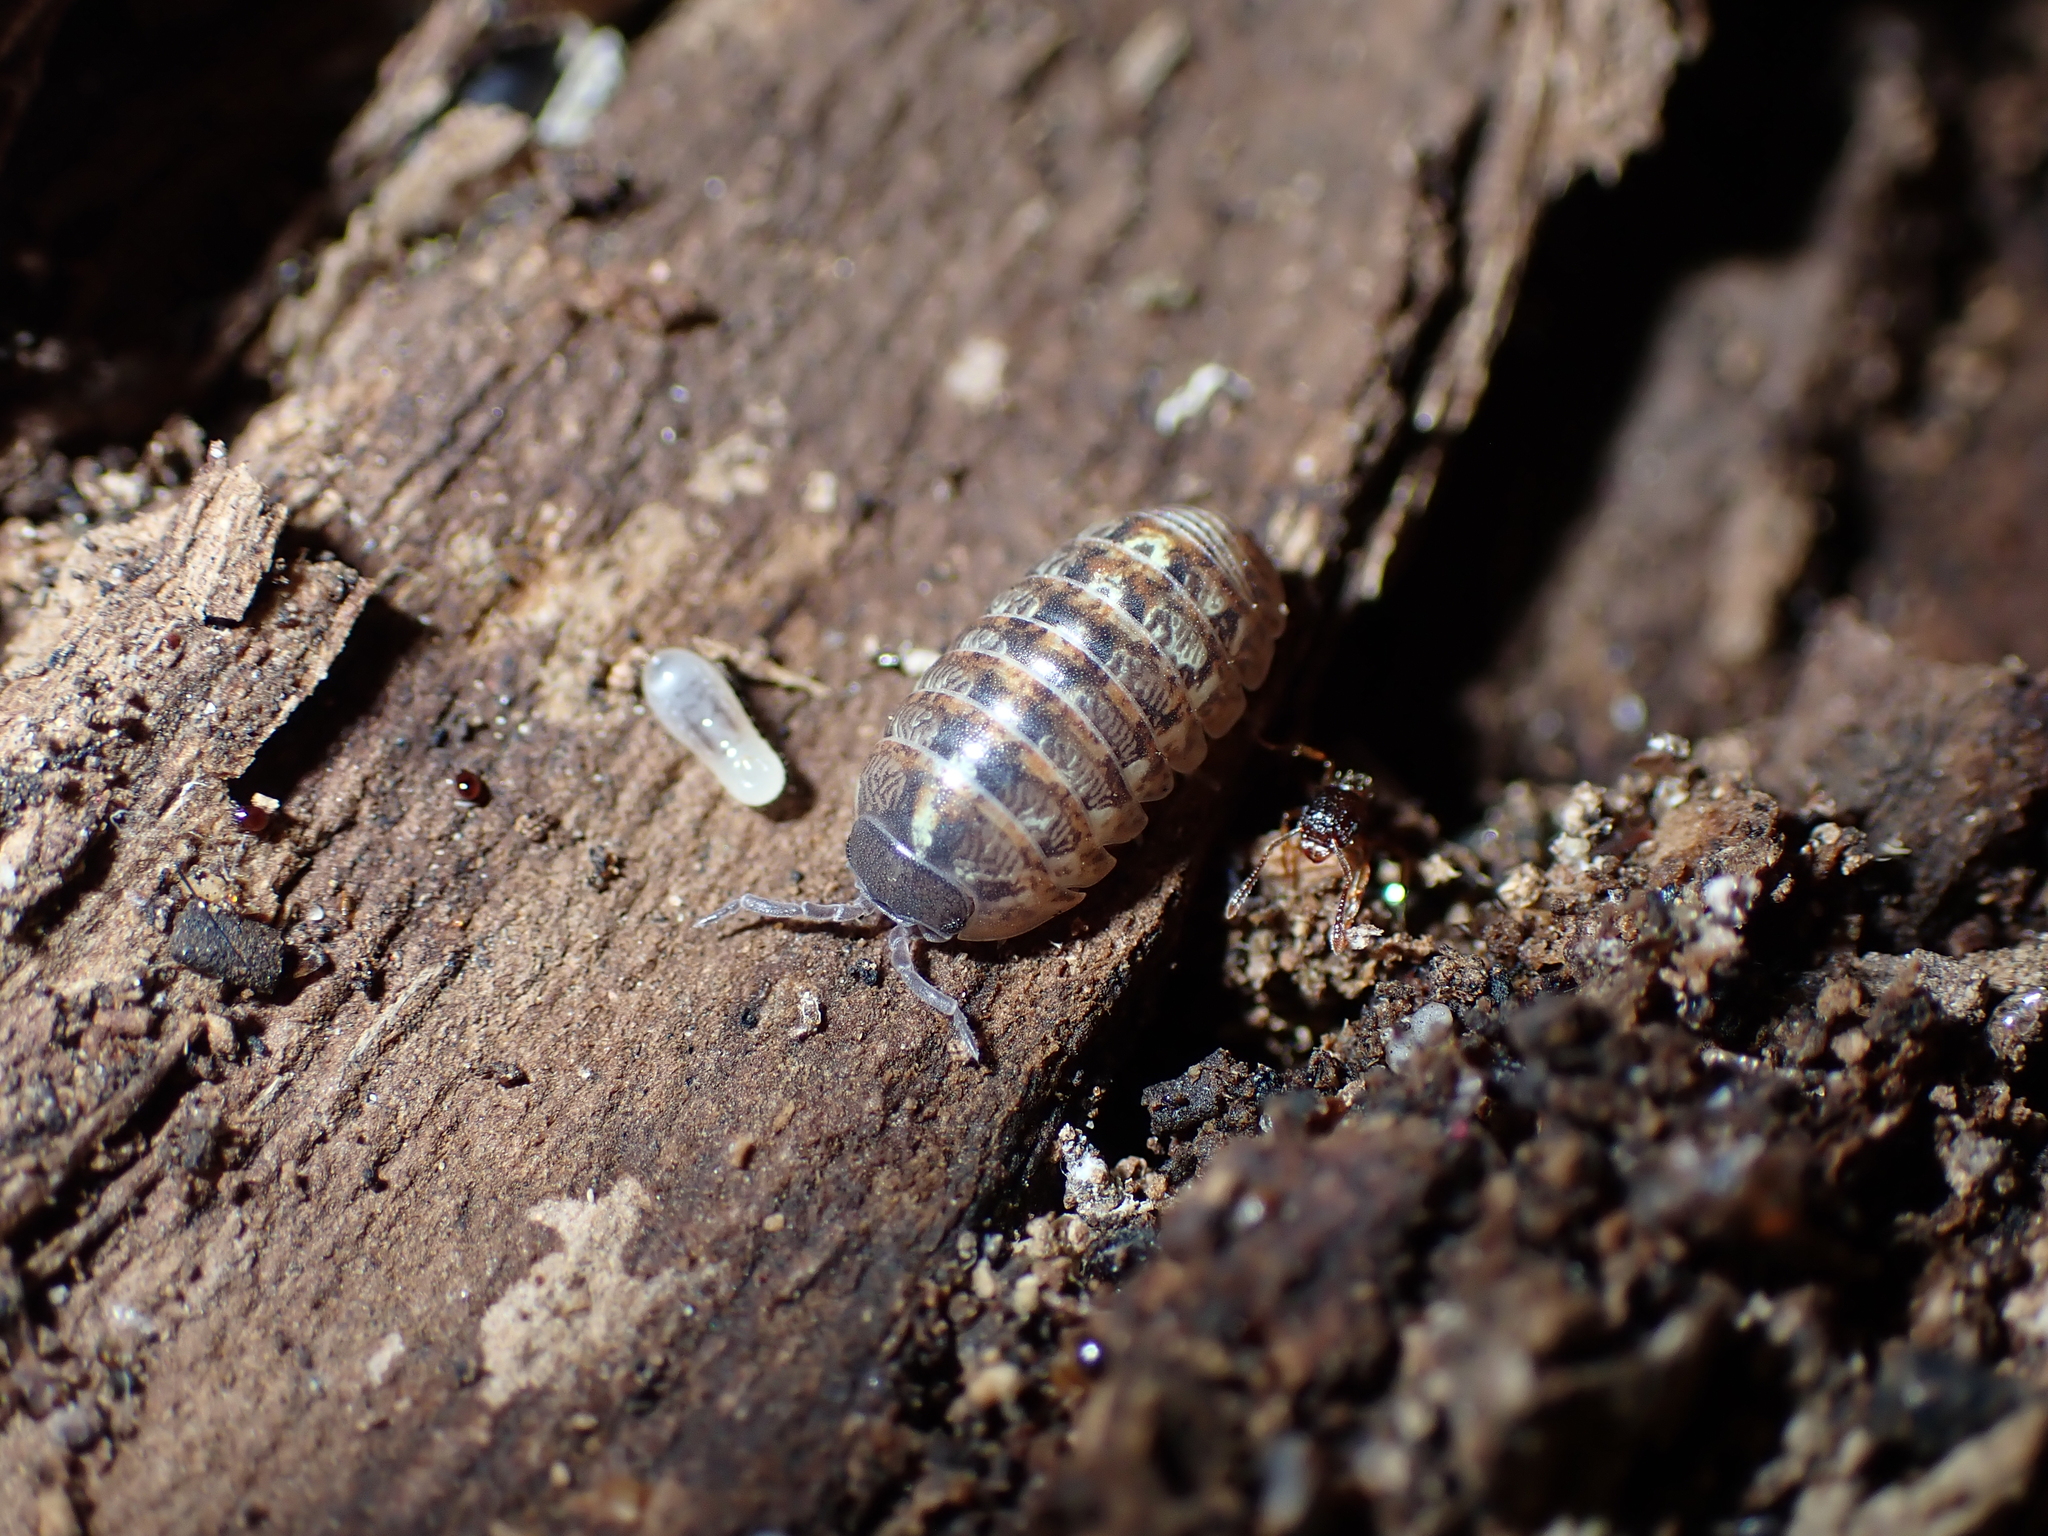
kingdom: Animalia
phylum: Arthropoda
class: Malacostraca
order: Isopoda
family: Armadillidiidae
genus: Armadillidium
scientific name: Armadillidium vulgare
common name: Common pill woodlouse
